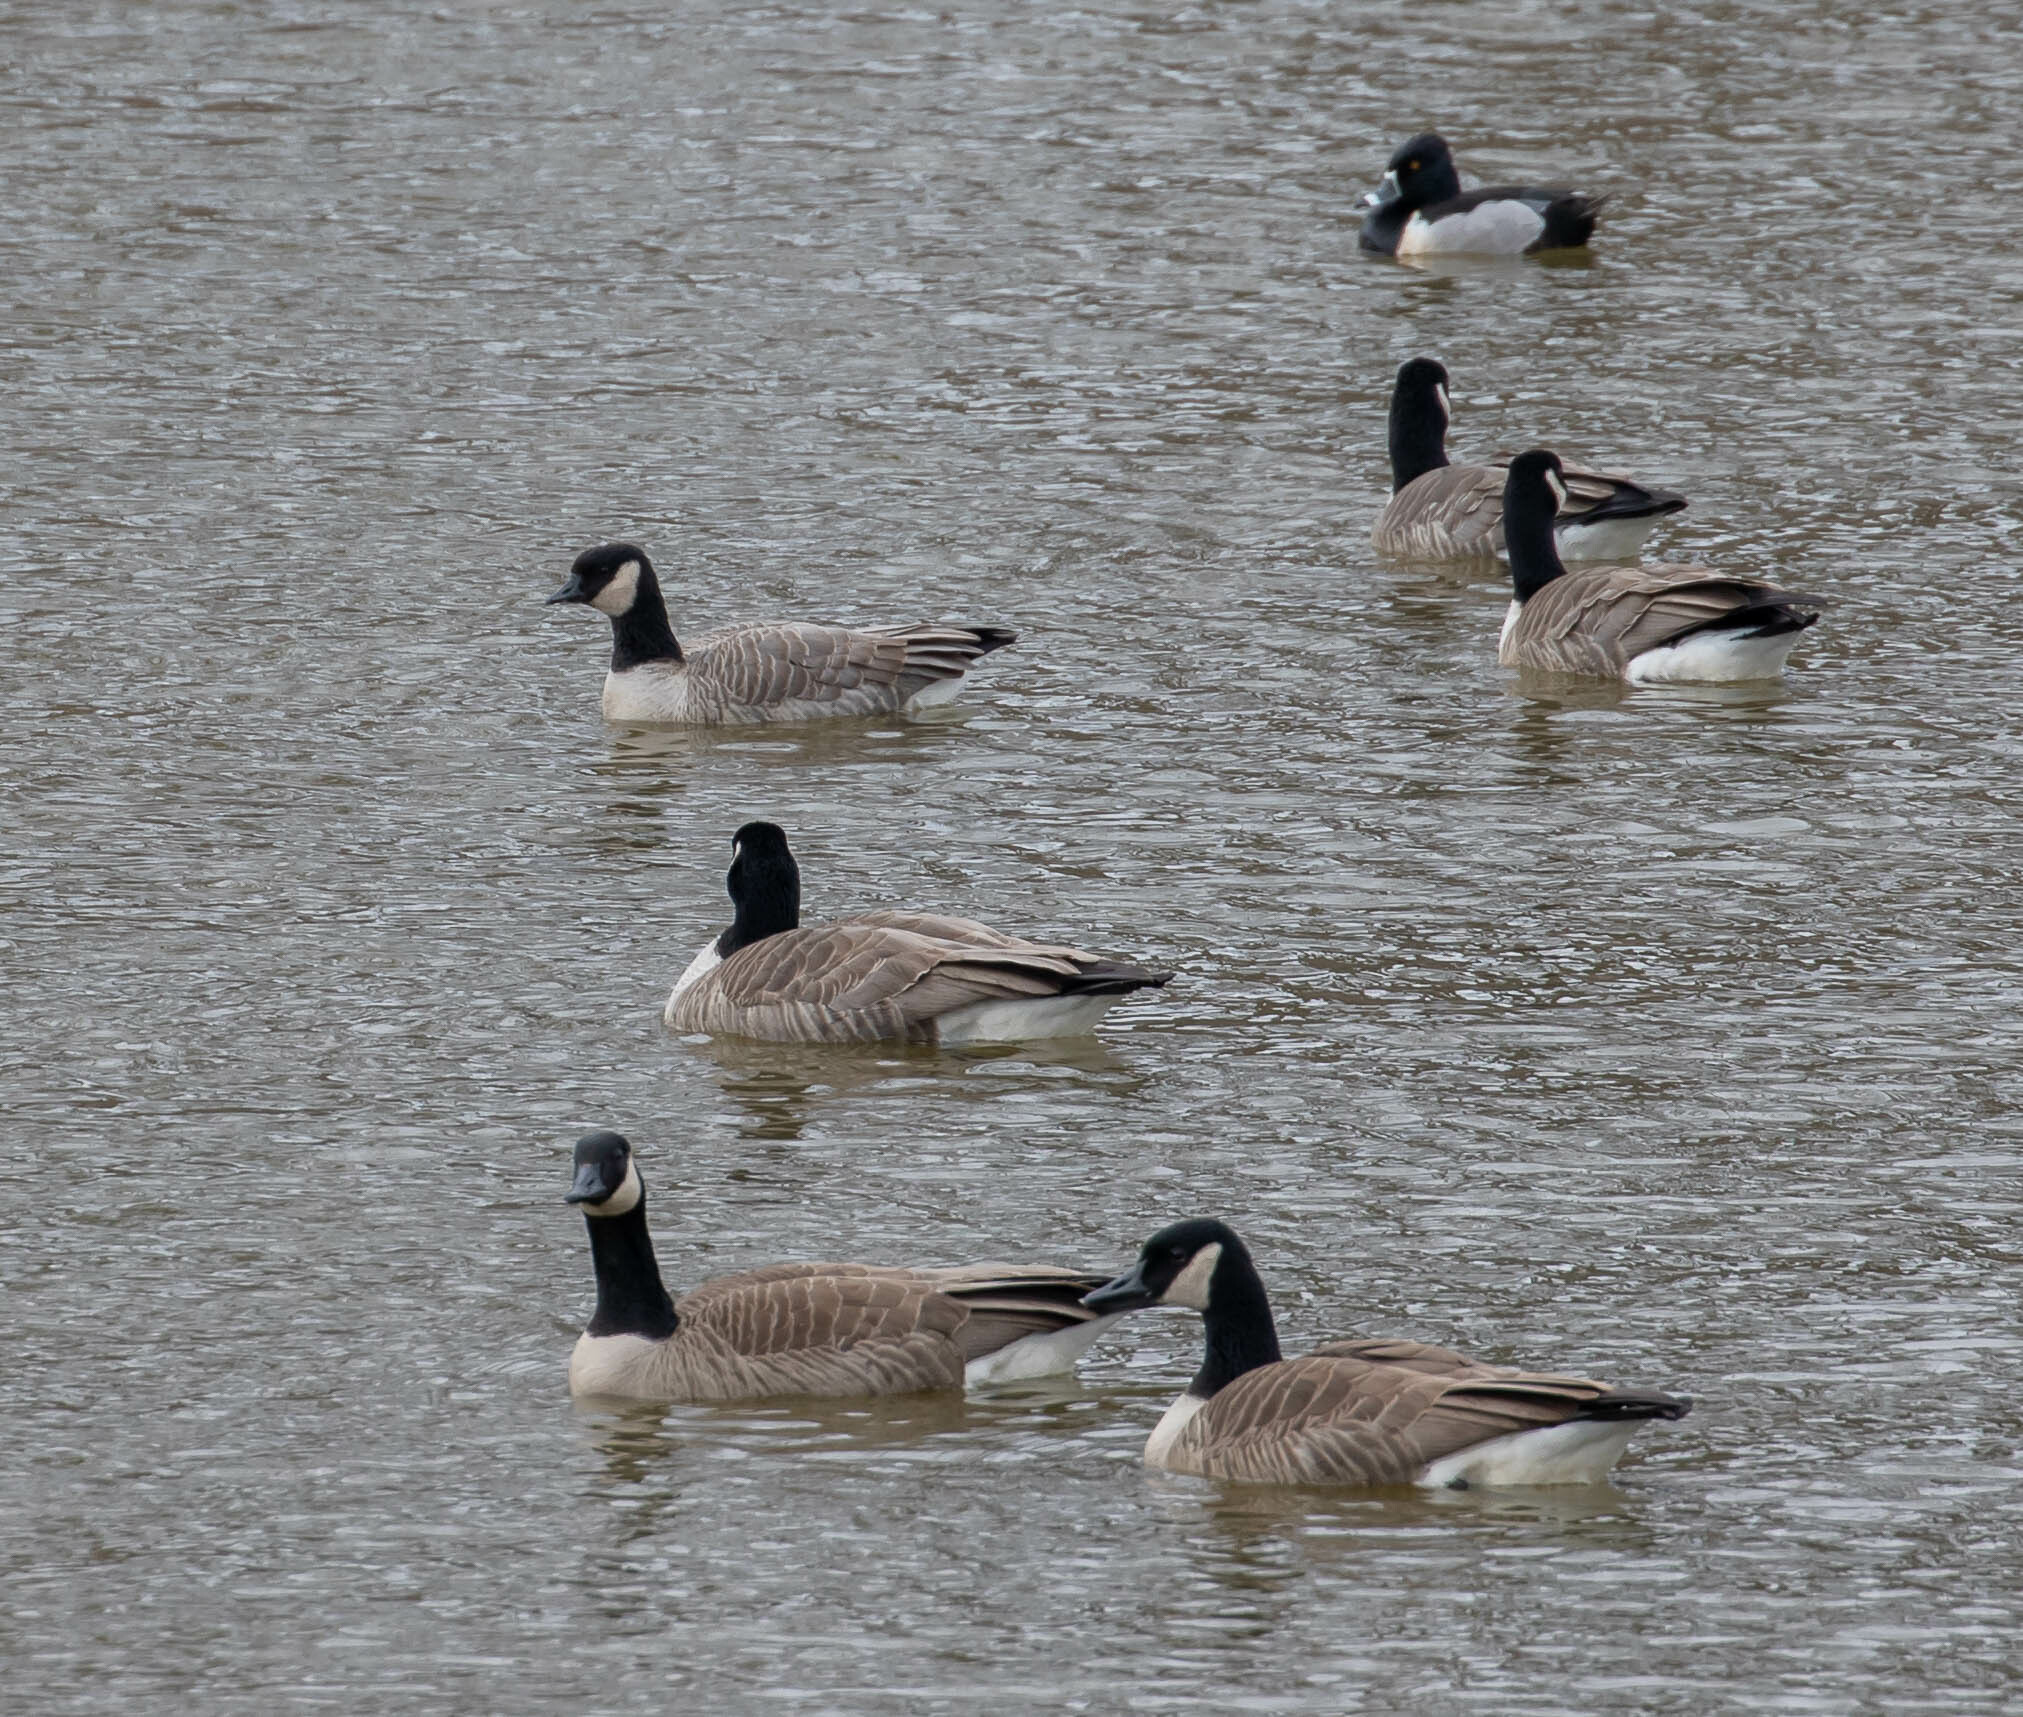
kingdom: Animalia
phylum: Chordata
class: Aves
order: Anseriformes
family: Anatidae
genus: Branta
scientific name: Branta hutchinsii
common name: Cackling goose
